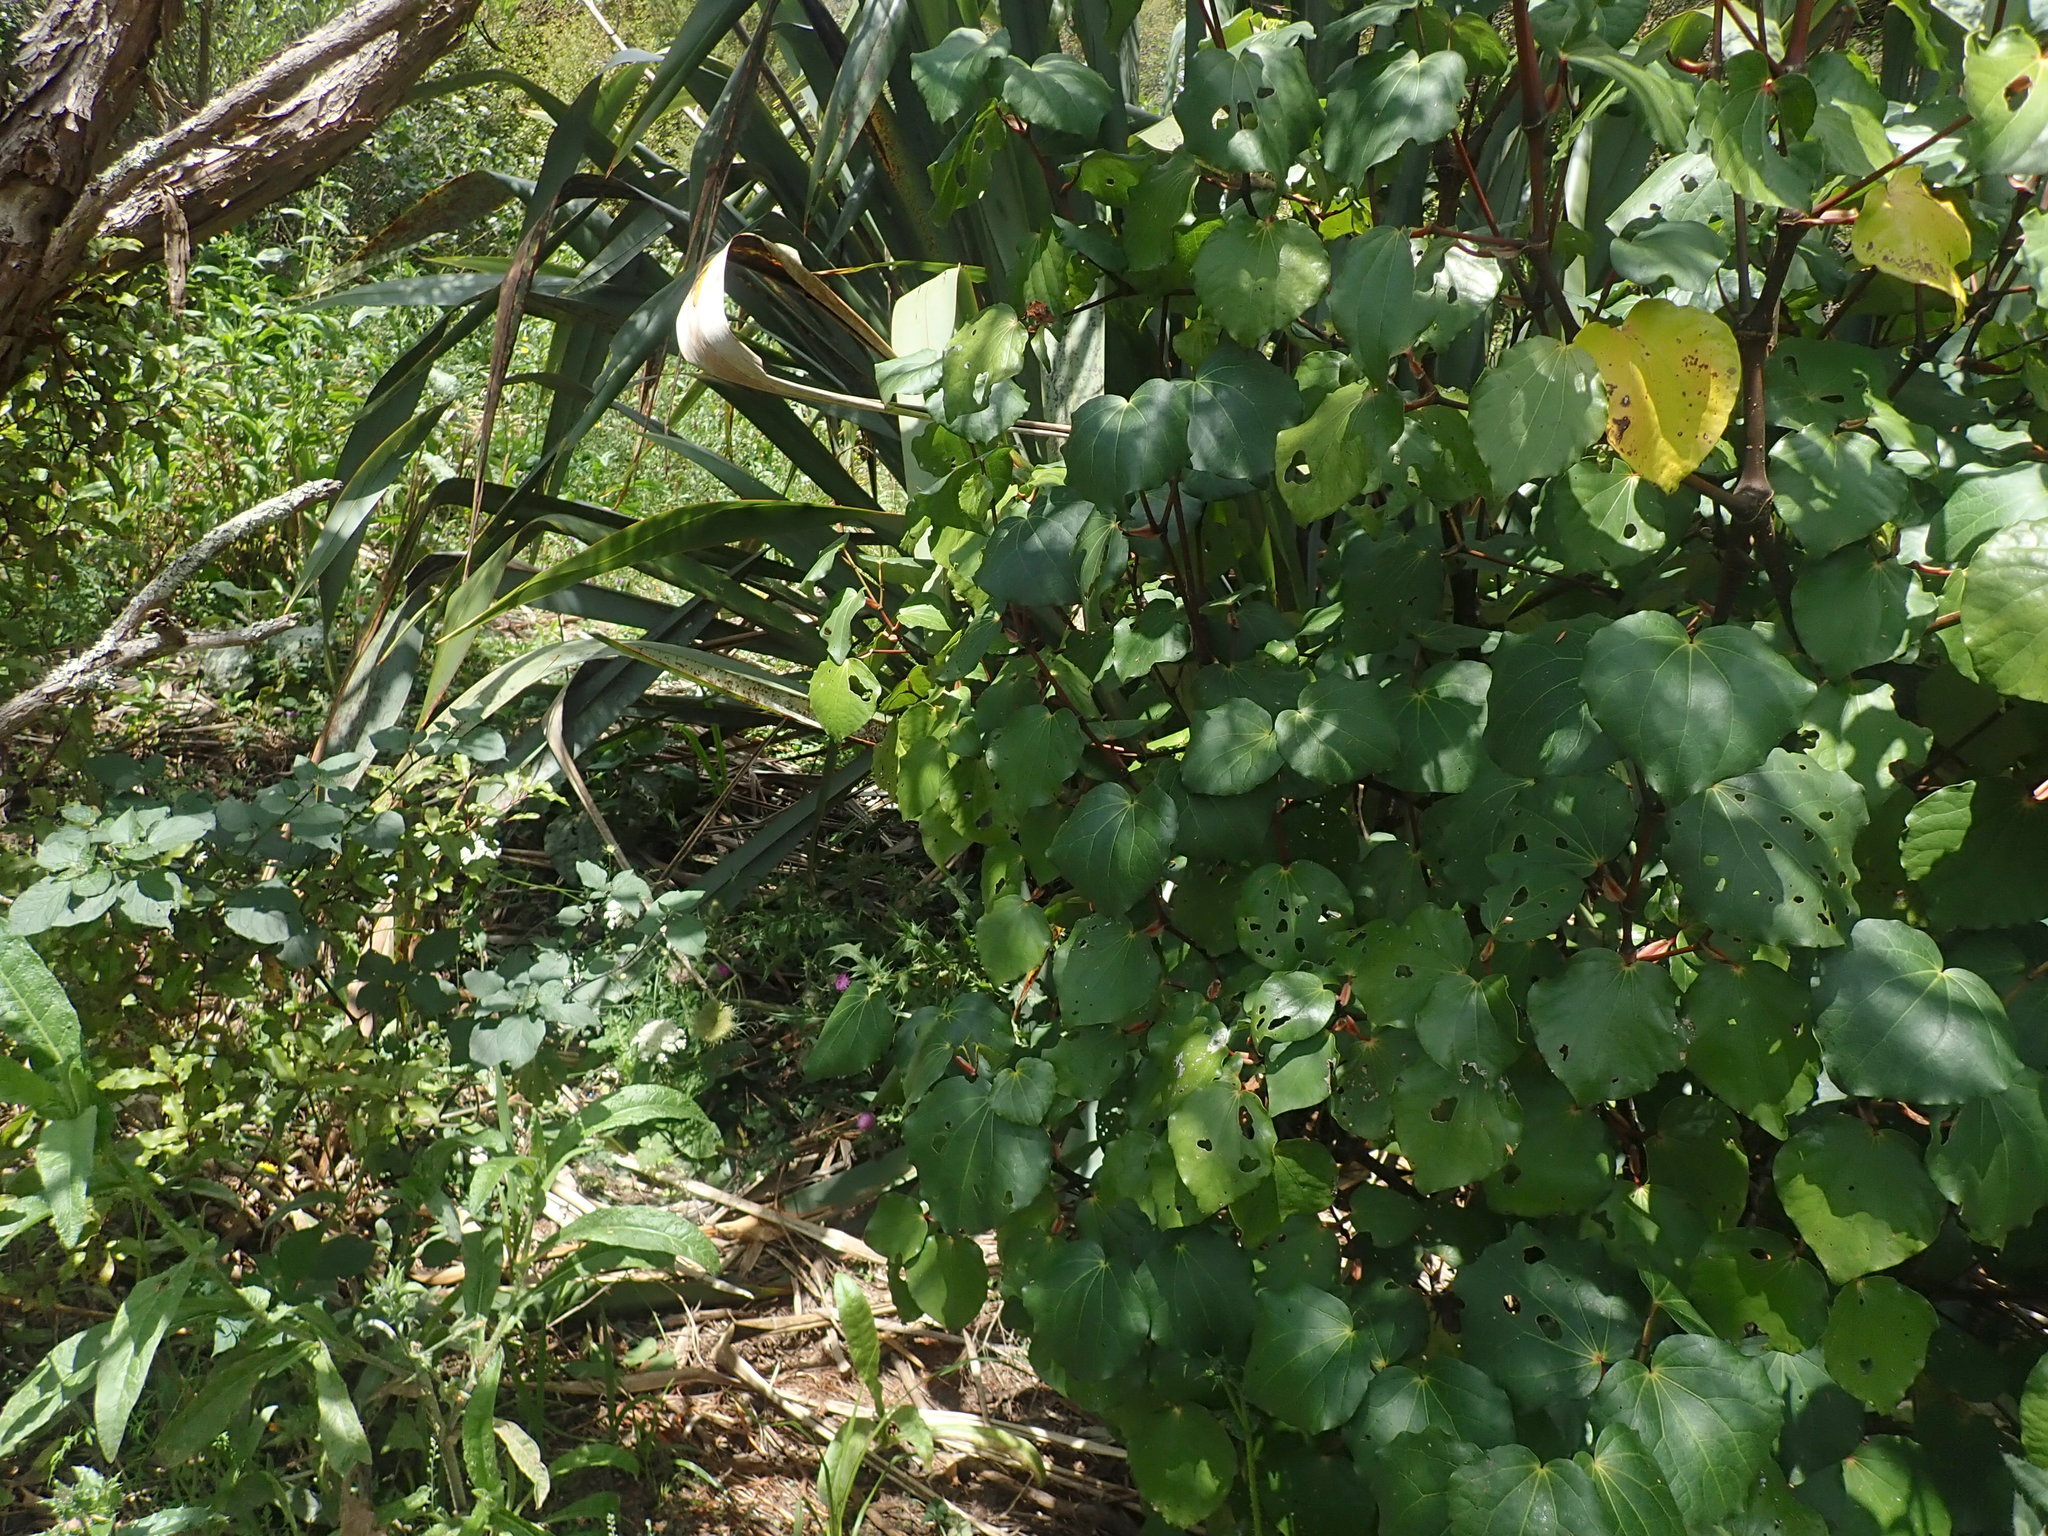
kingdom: Plantae
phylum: Tracheophyta
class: Magnoliopsida
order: Piperales
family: Piperaceae
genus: Macropiper
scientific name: Macropiper excelsum
